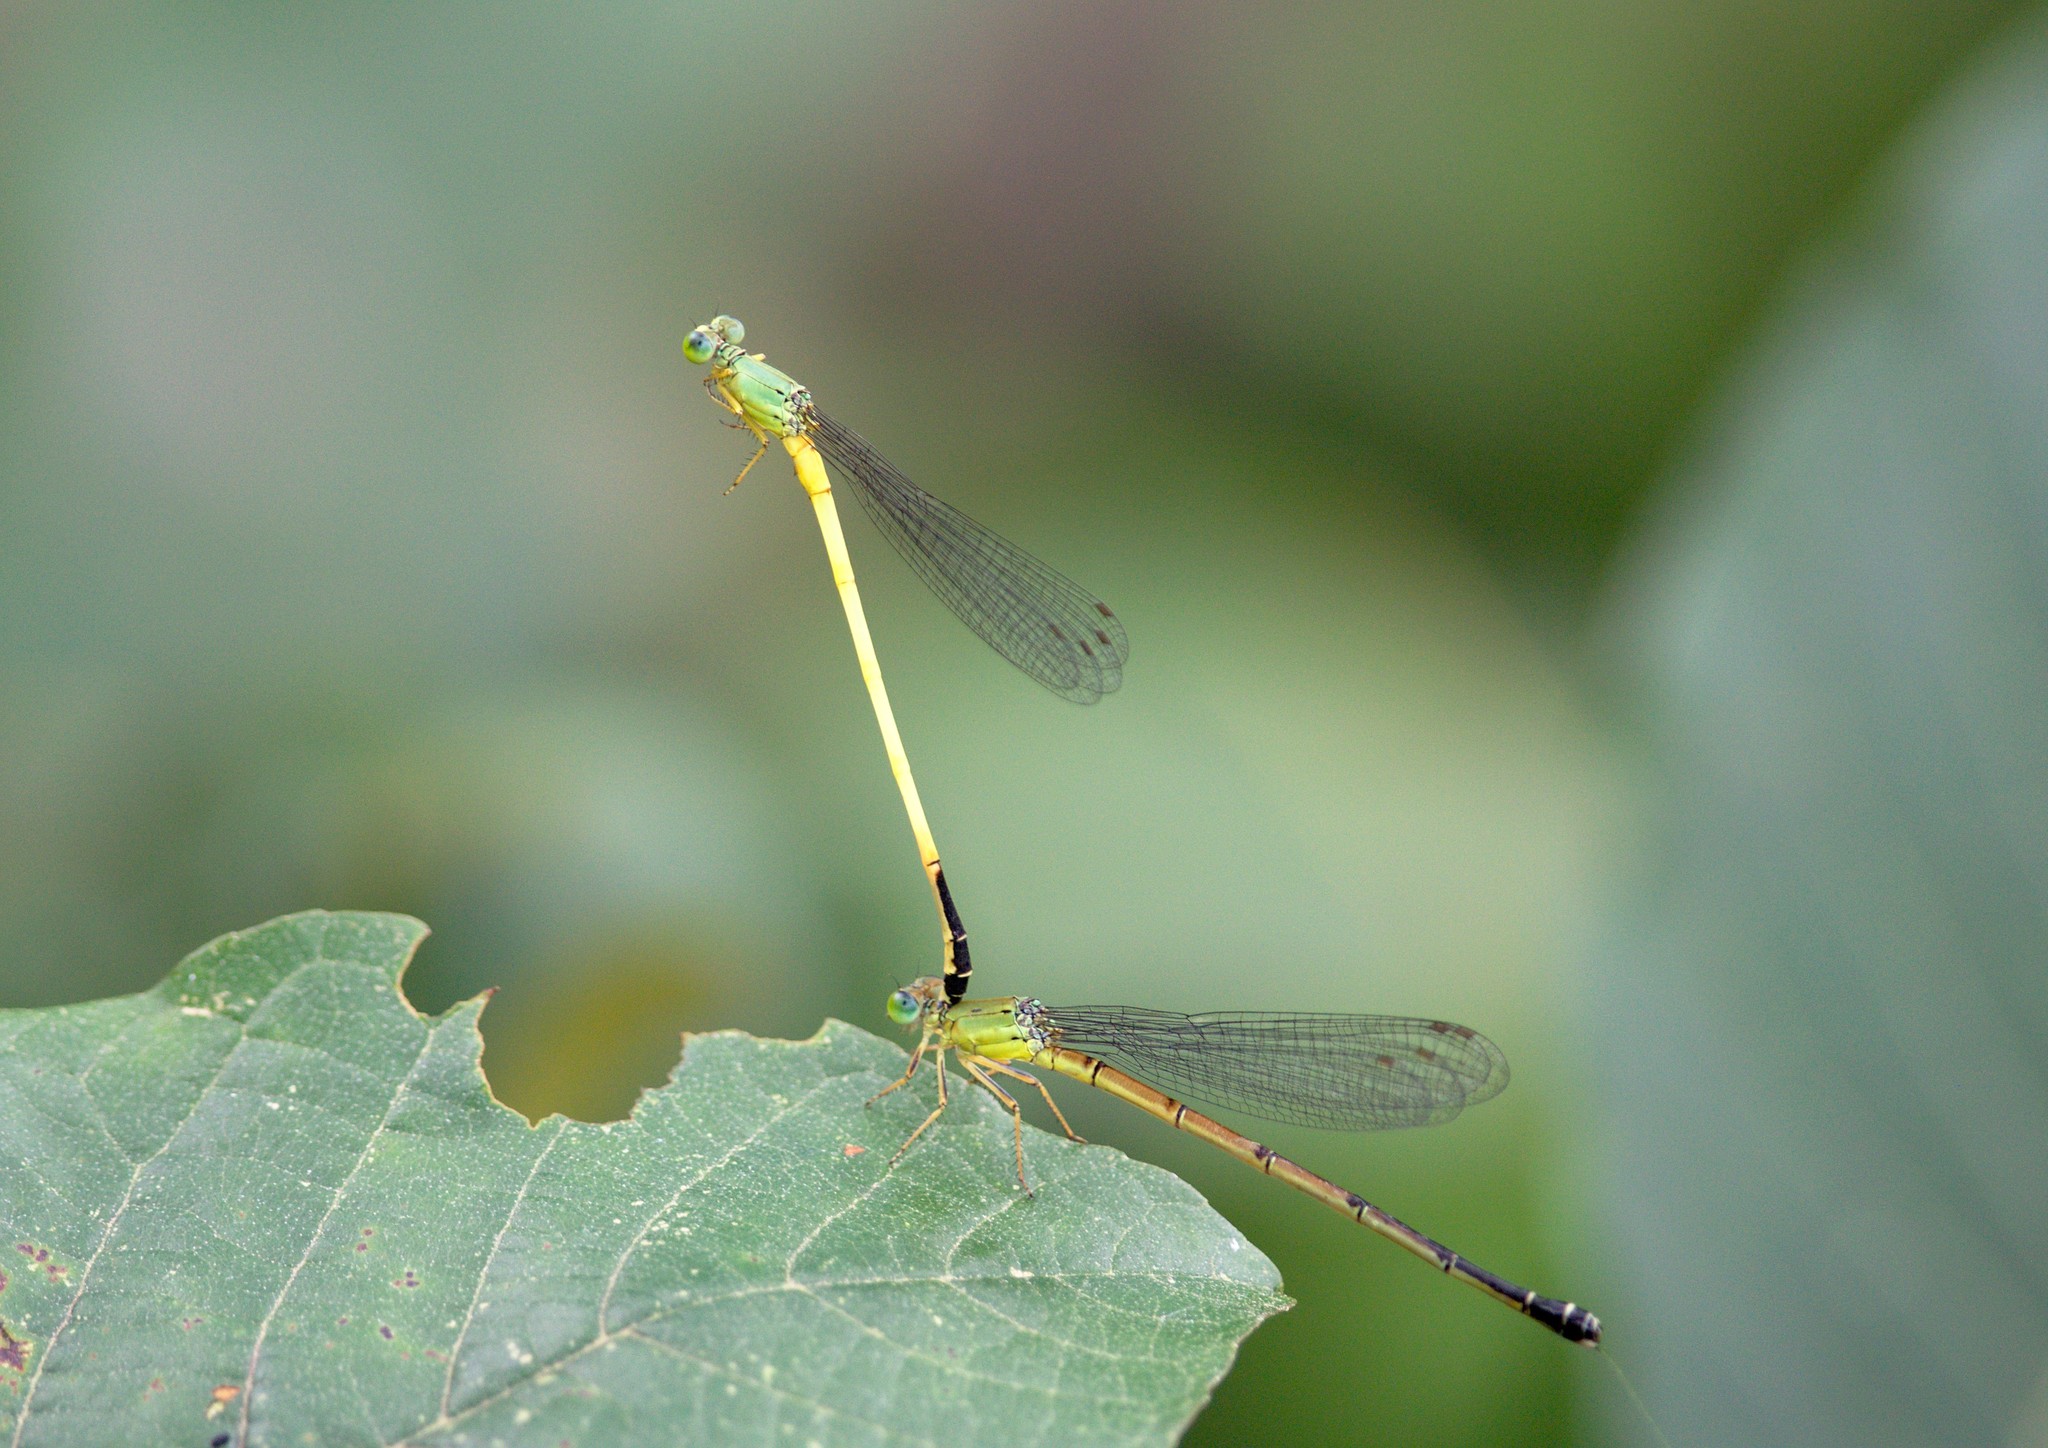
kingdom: Animalia
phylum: Arthropoda
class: Insecta
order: Odonata
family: Coenagrionidae
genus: Ceriagrion
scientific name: Ceriagrion fallax
